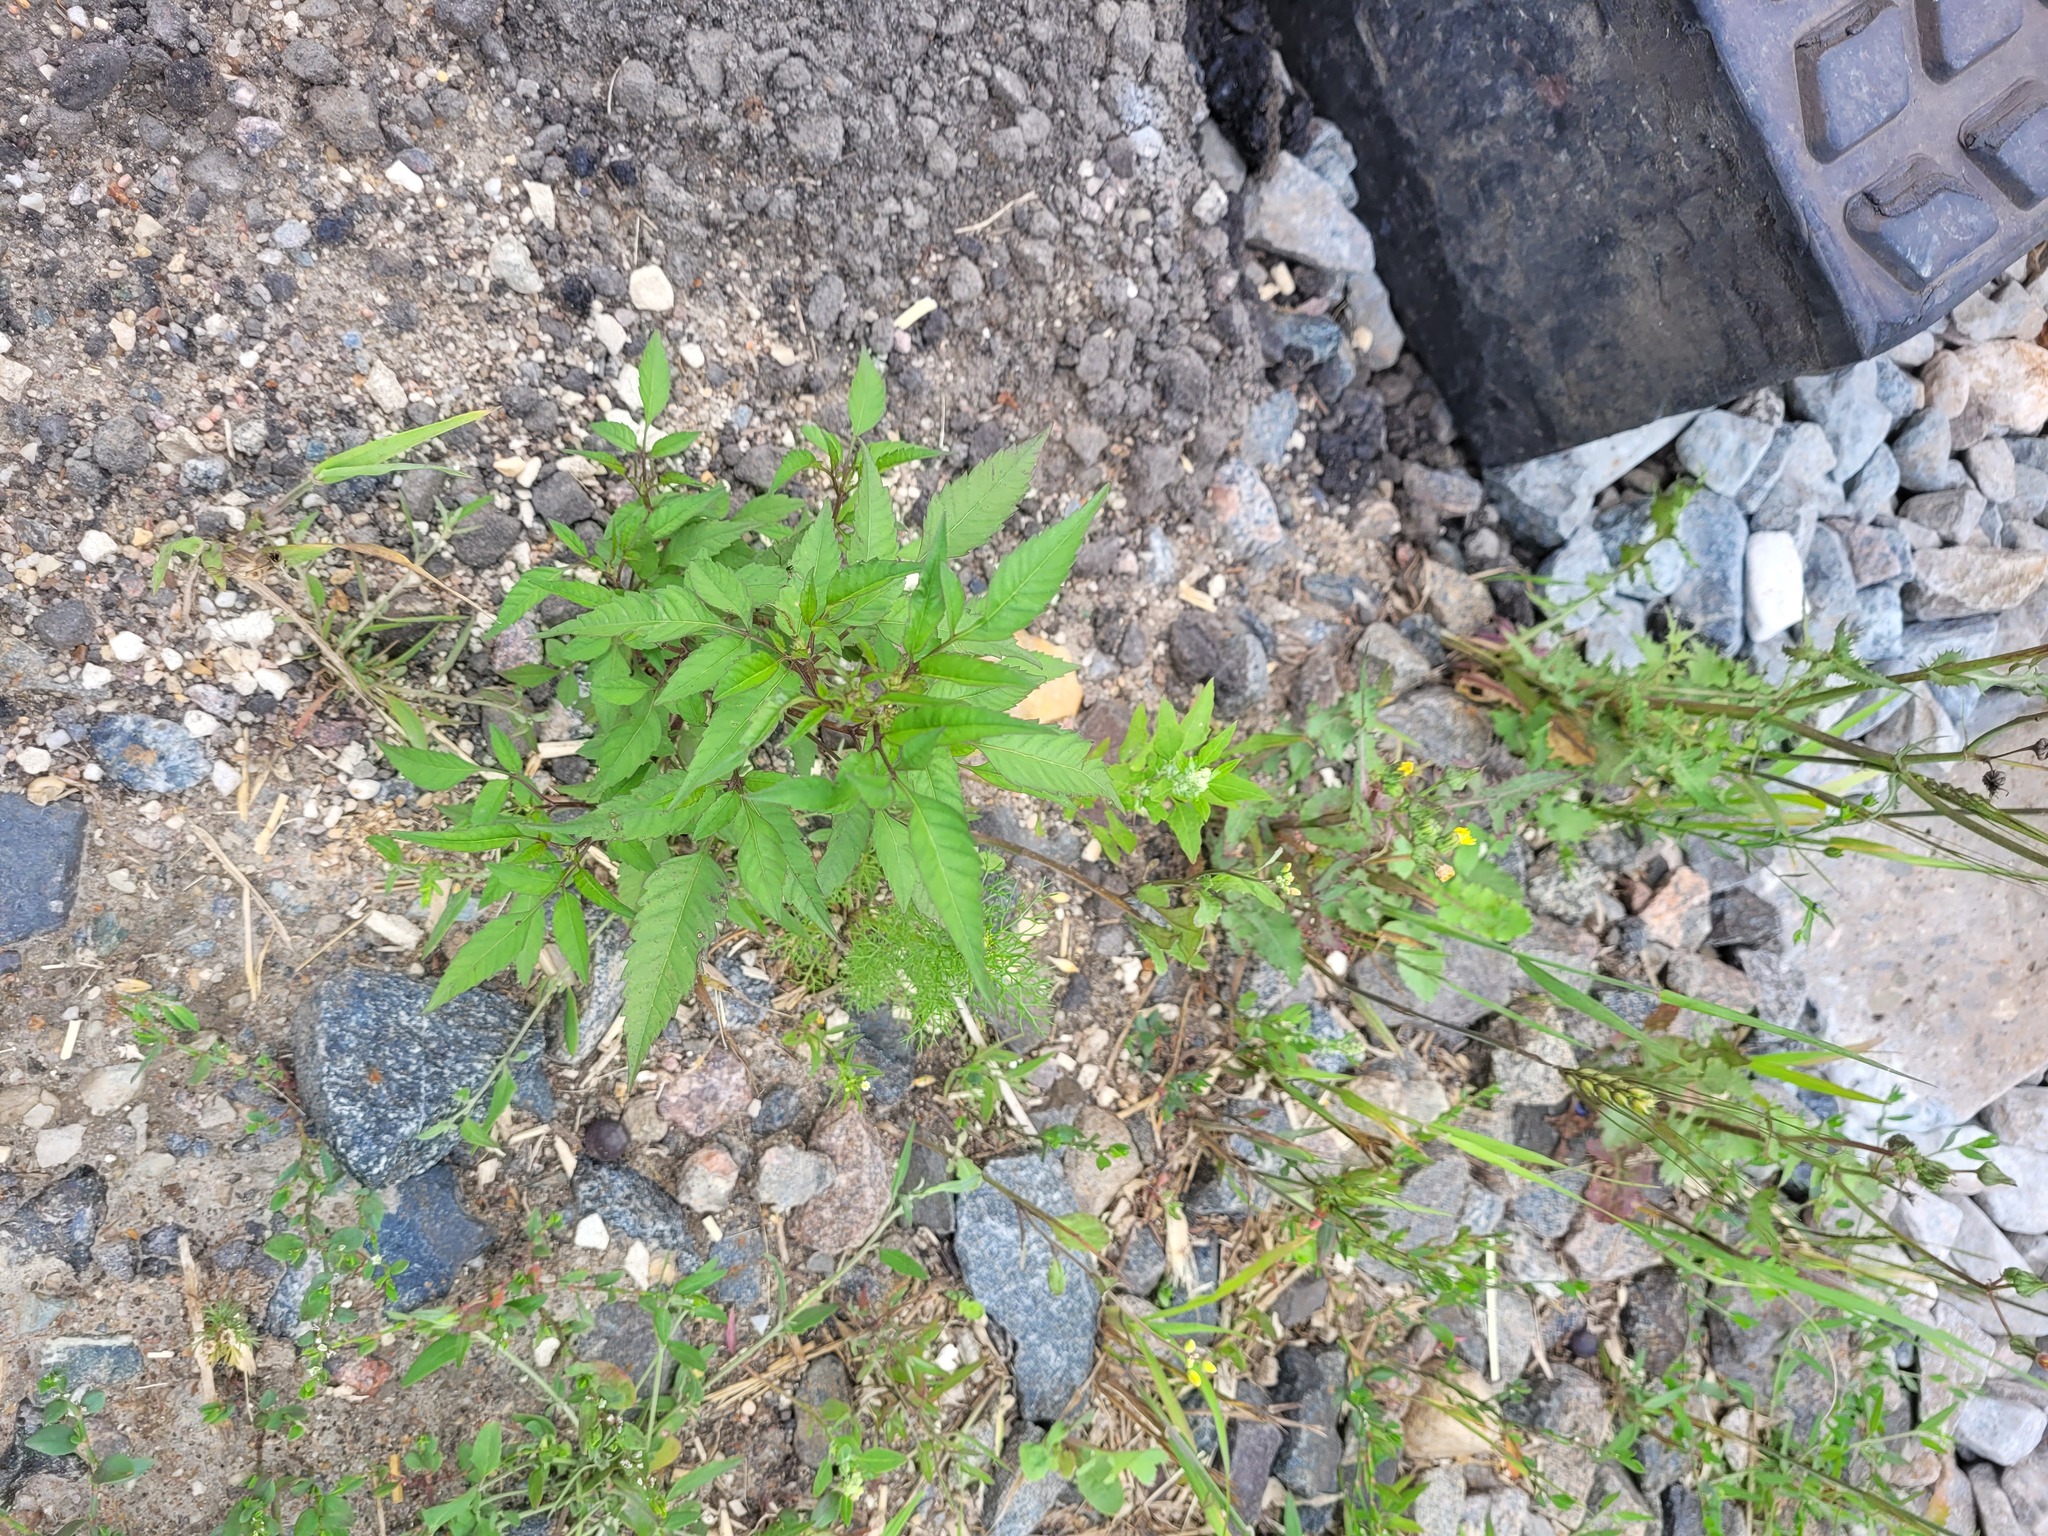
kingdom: Plantae
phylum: Tracheophyta
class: Magnoliopsida
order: Asterales
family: Asteraceae
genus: Bidens
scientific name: Bidens frondosa
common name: Beggarticks
